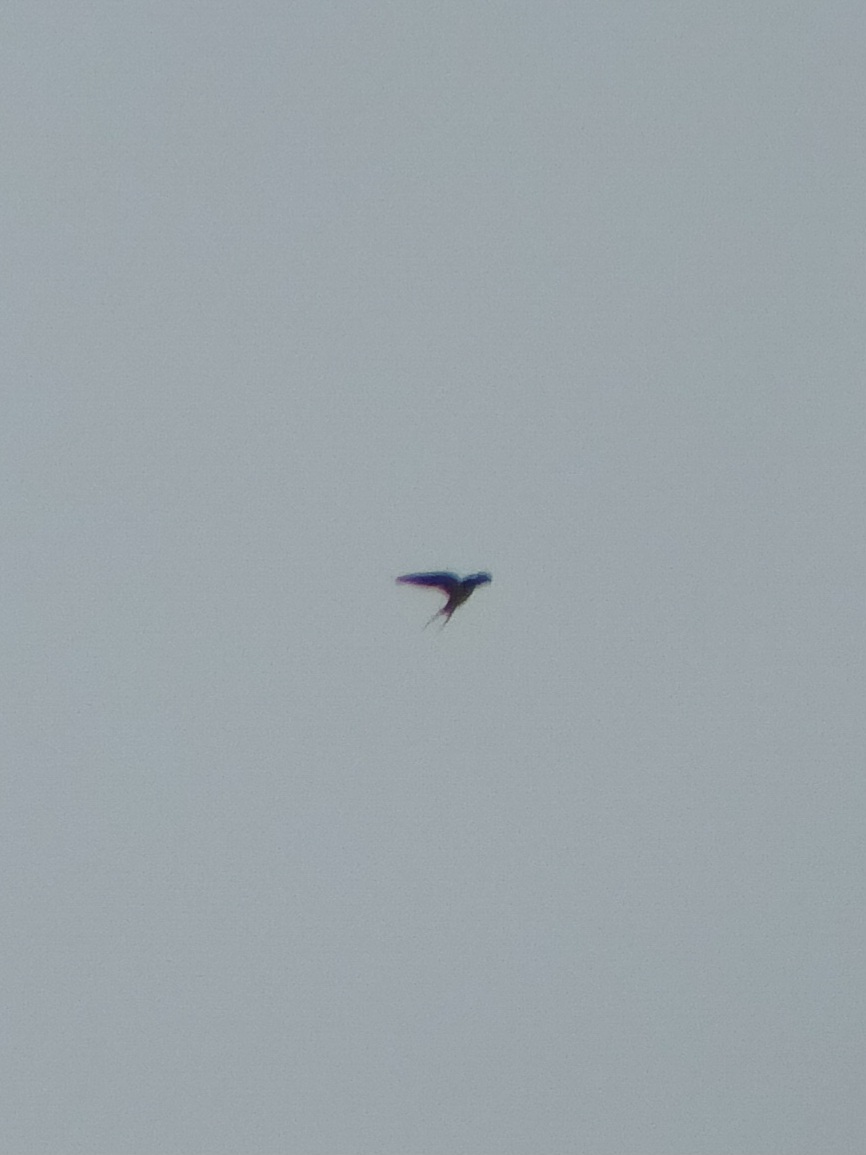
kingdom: Animalia
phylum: Chordata
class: Aves
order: Passeriformes
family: Hirundinidae
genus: Hirundo
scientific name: Hirundo rustica
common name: Barn swallow
